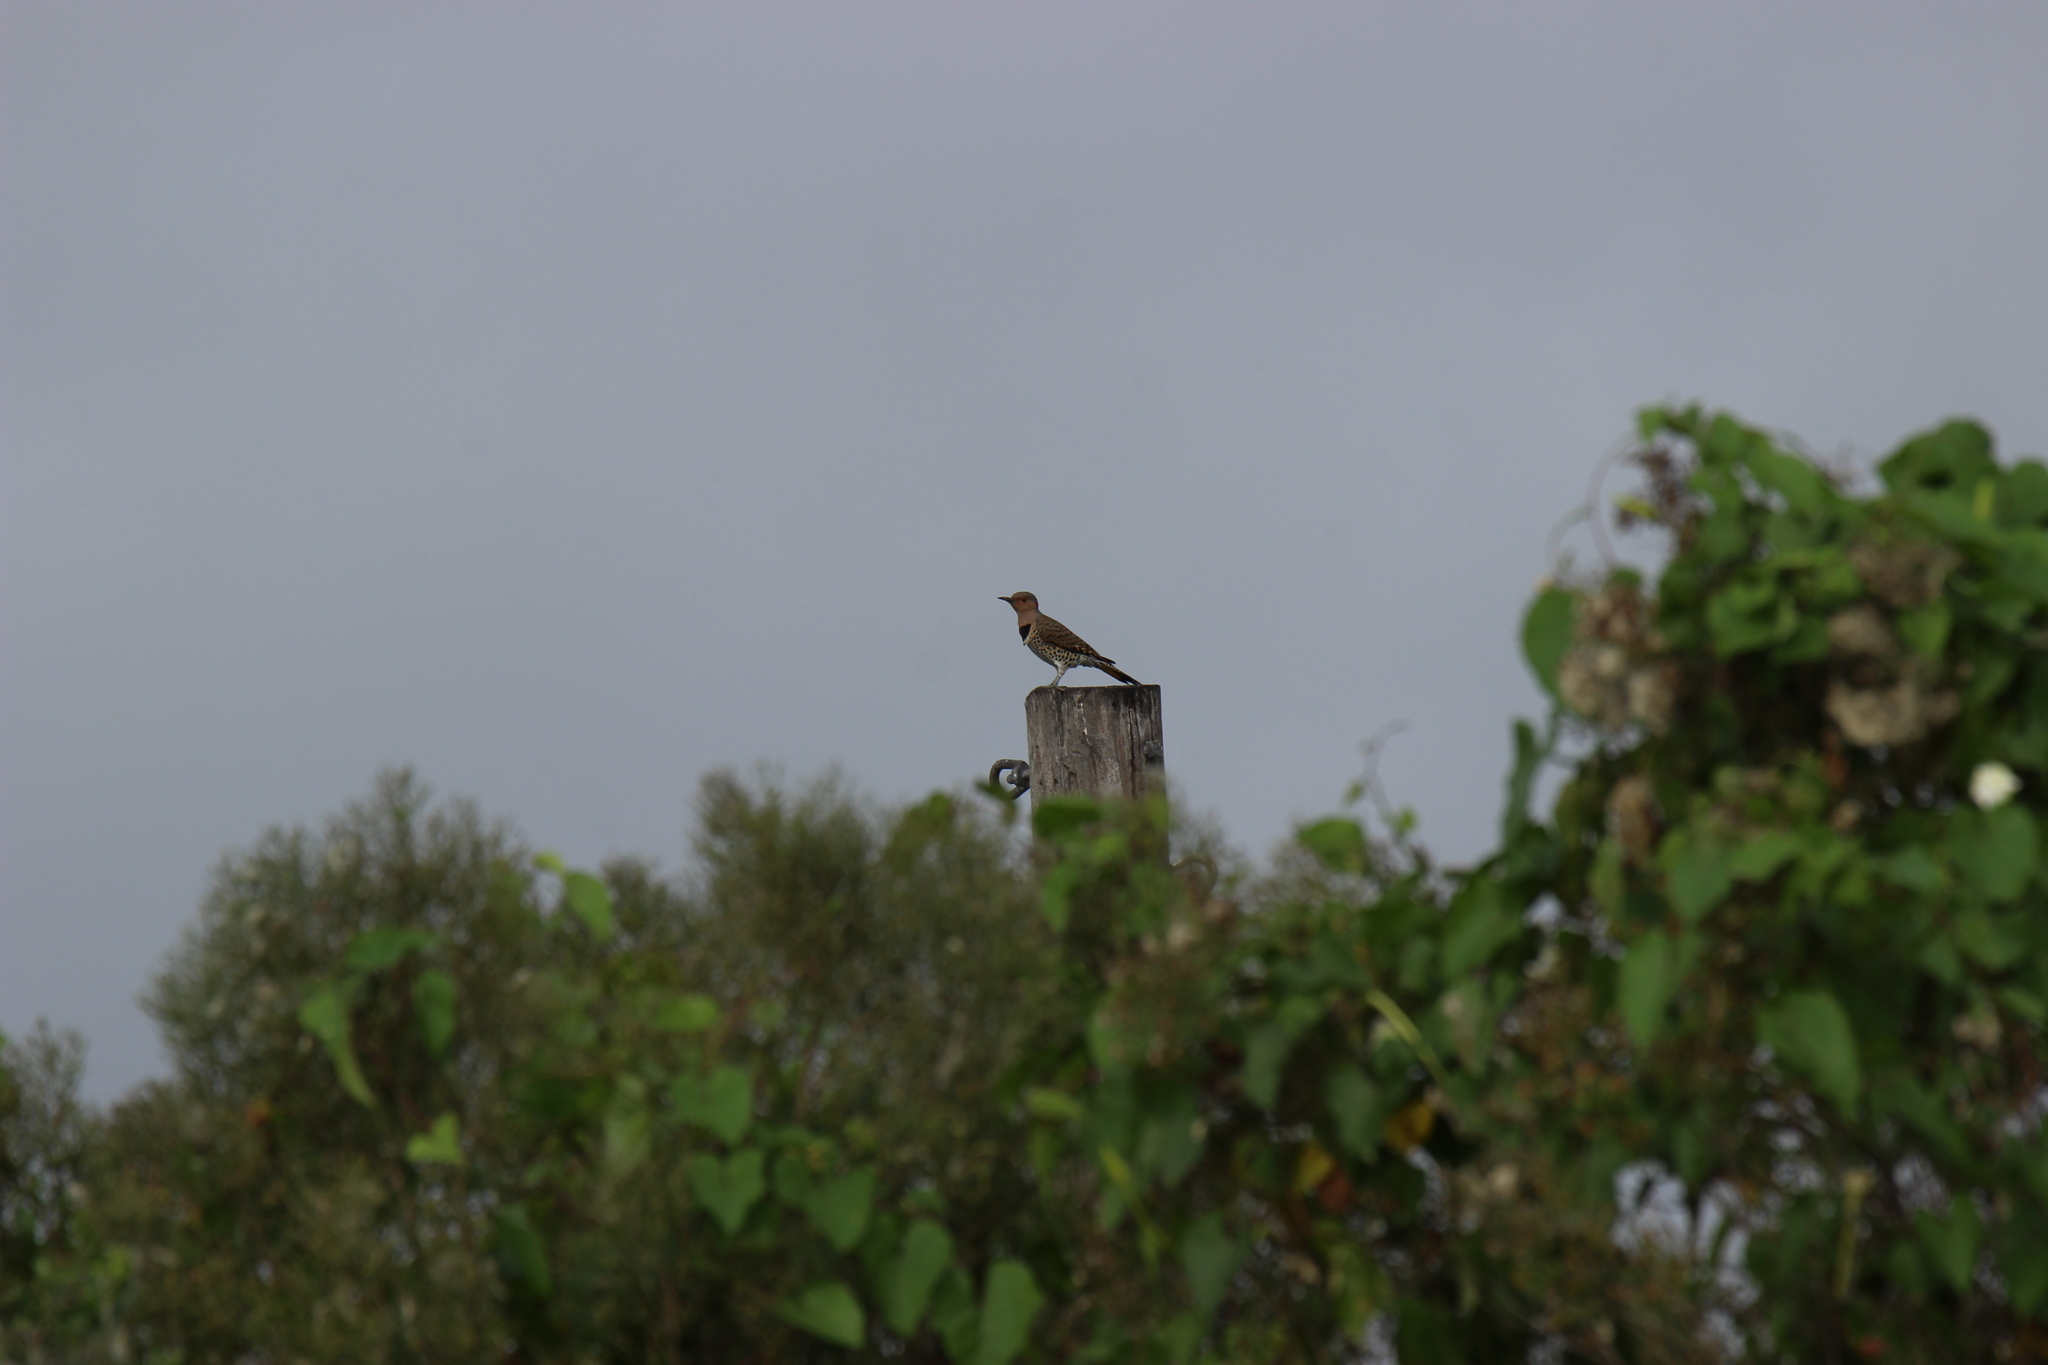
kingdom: Animalia
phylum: Chordata
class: Aves
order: Piciformes
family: Picidae
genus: Colaptes
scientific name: Colaptes auratus
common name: Northern flicker
